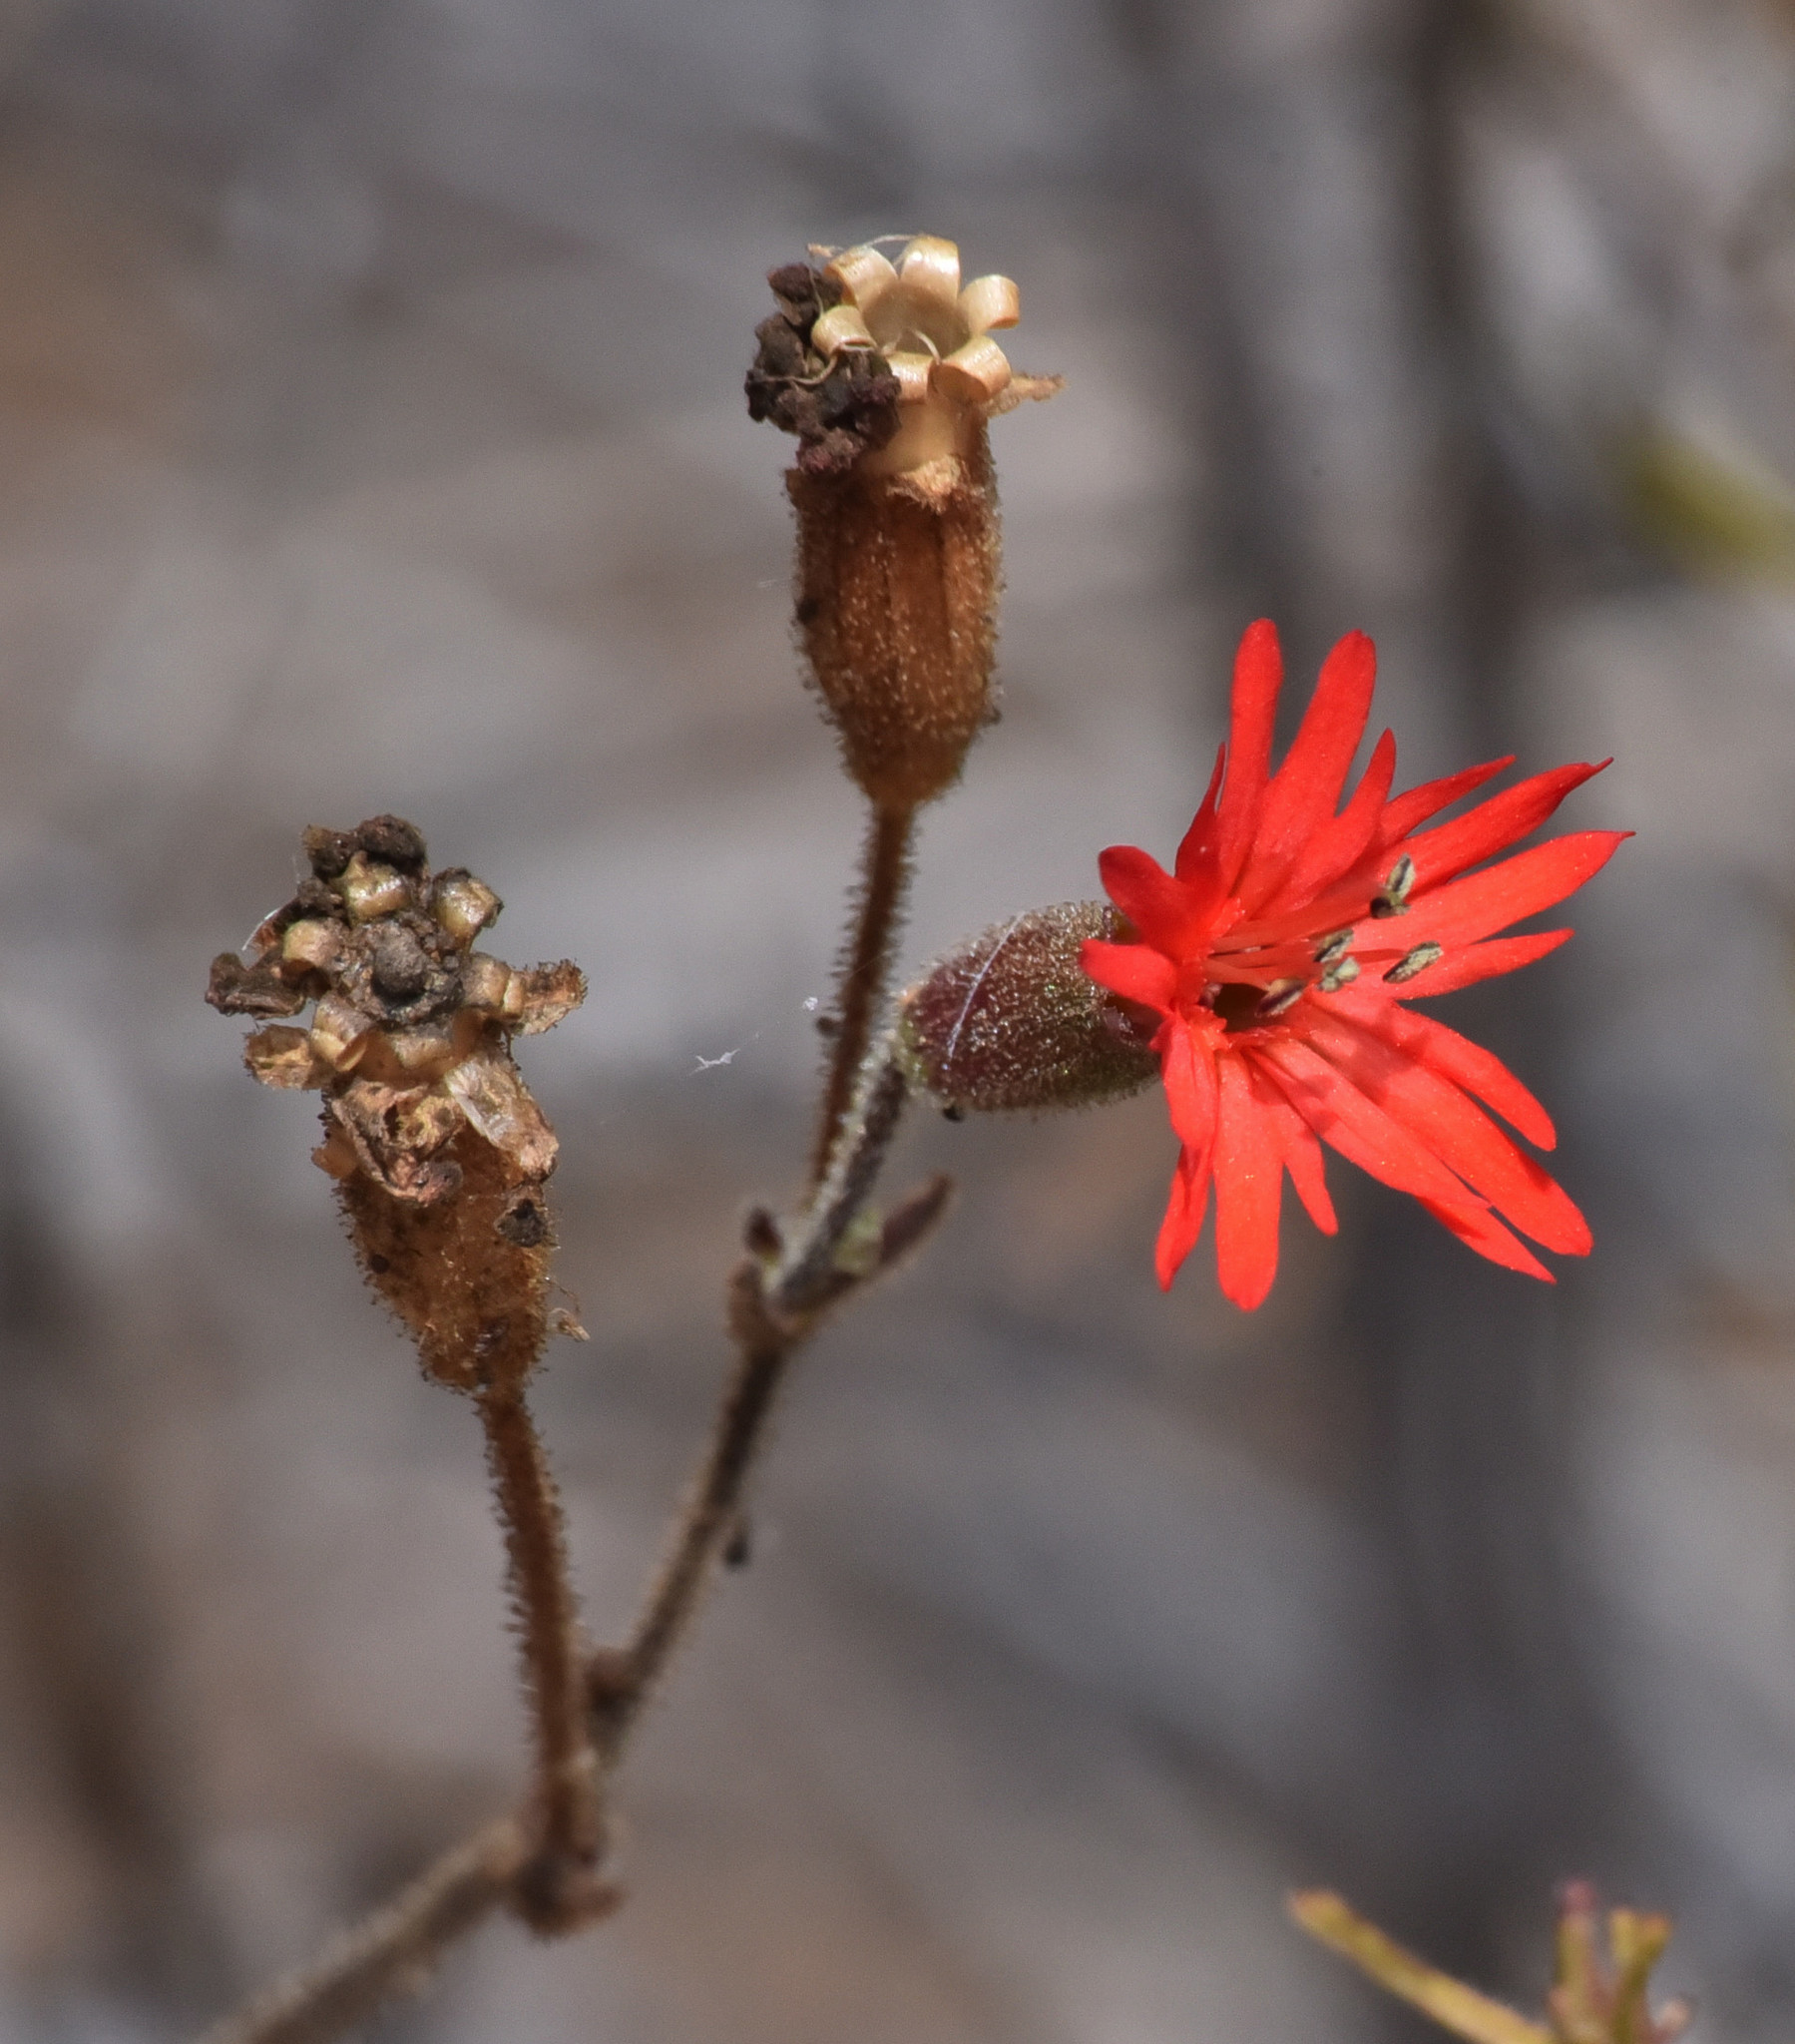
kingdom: Plantae
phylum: Tracheophyta
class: Magnoliopsida
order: Caryophyllales
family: Caryophyllaceae
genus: Silene
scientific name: Silene laciniata
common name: Indian-pink
